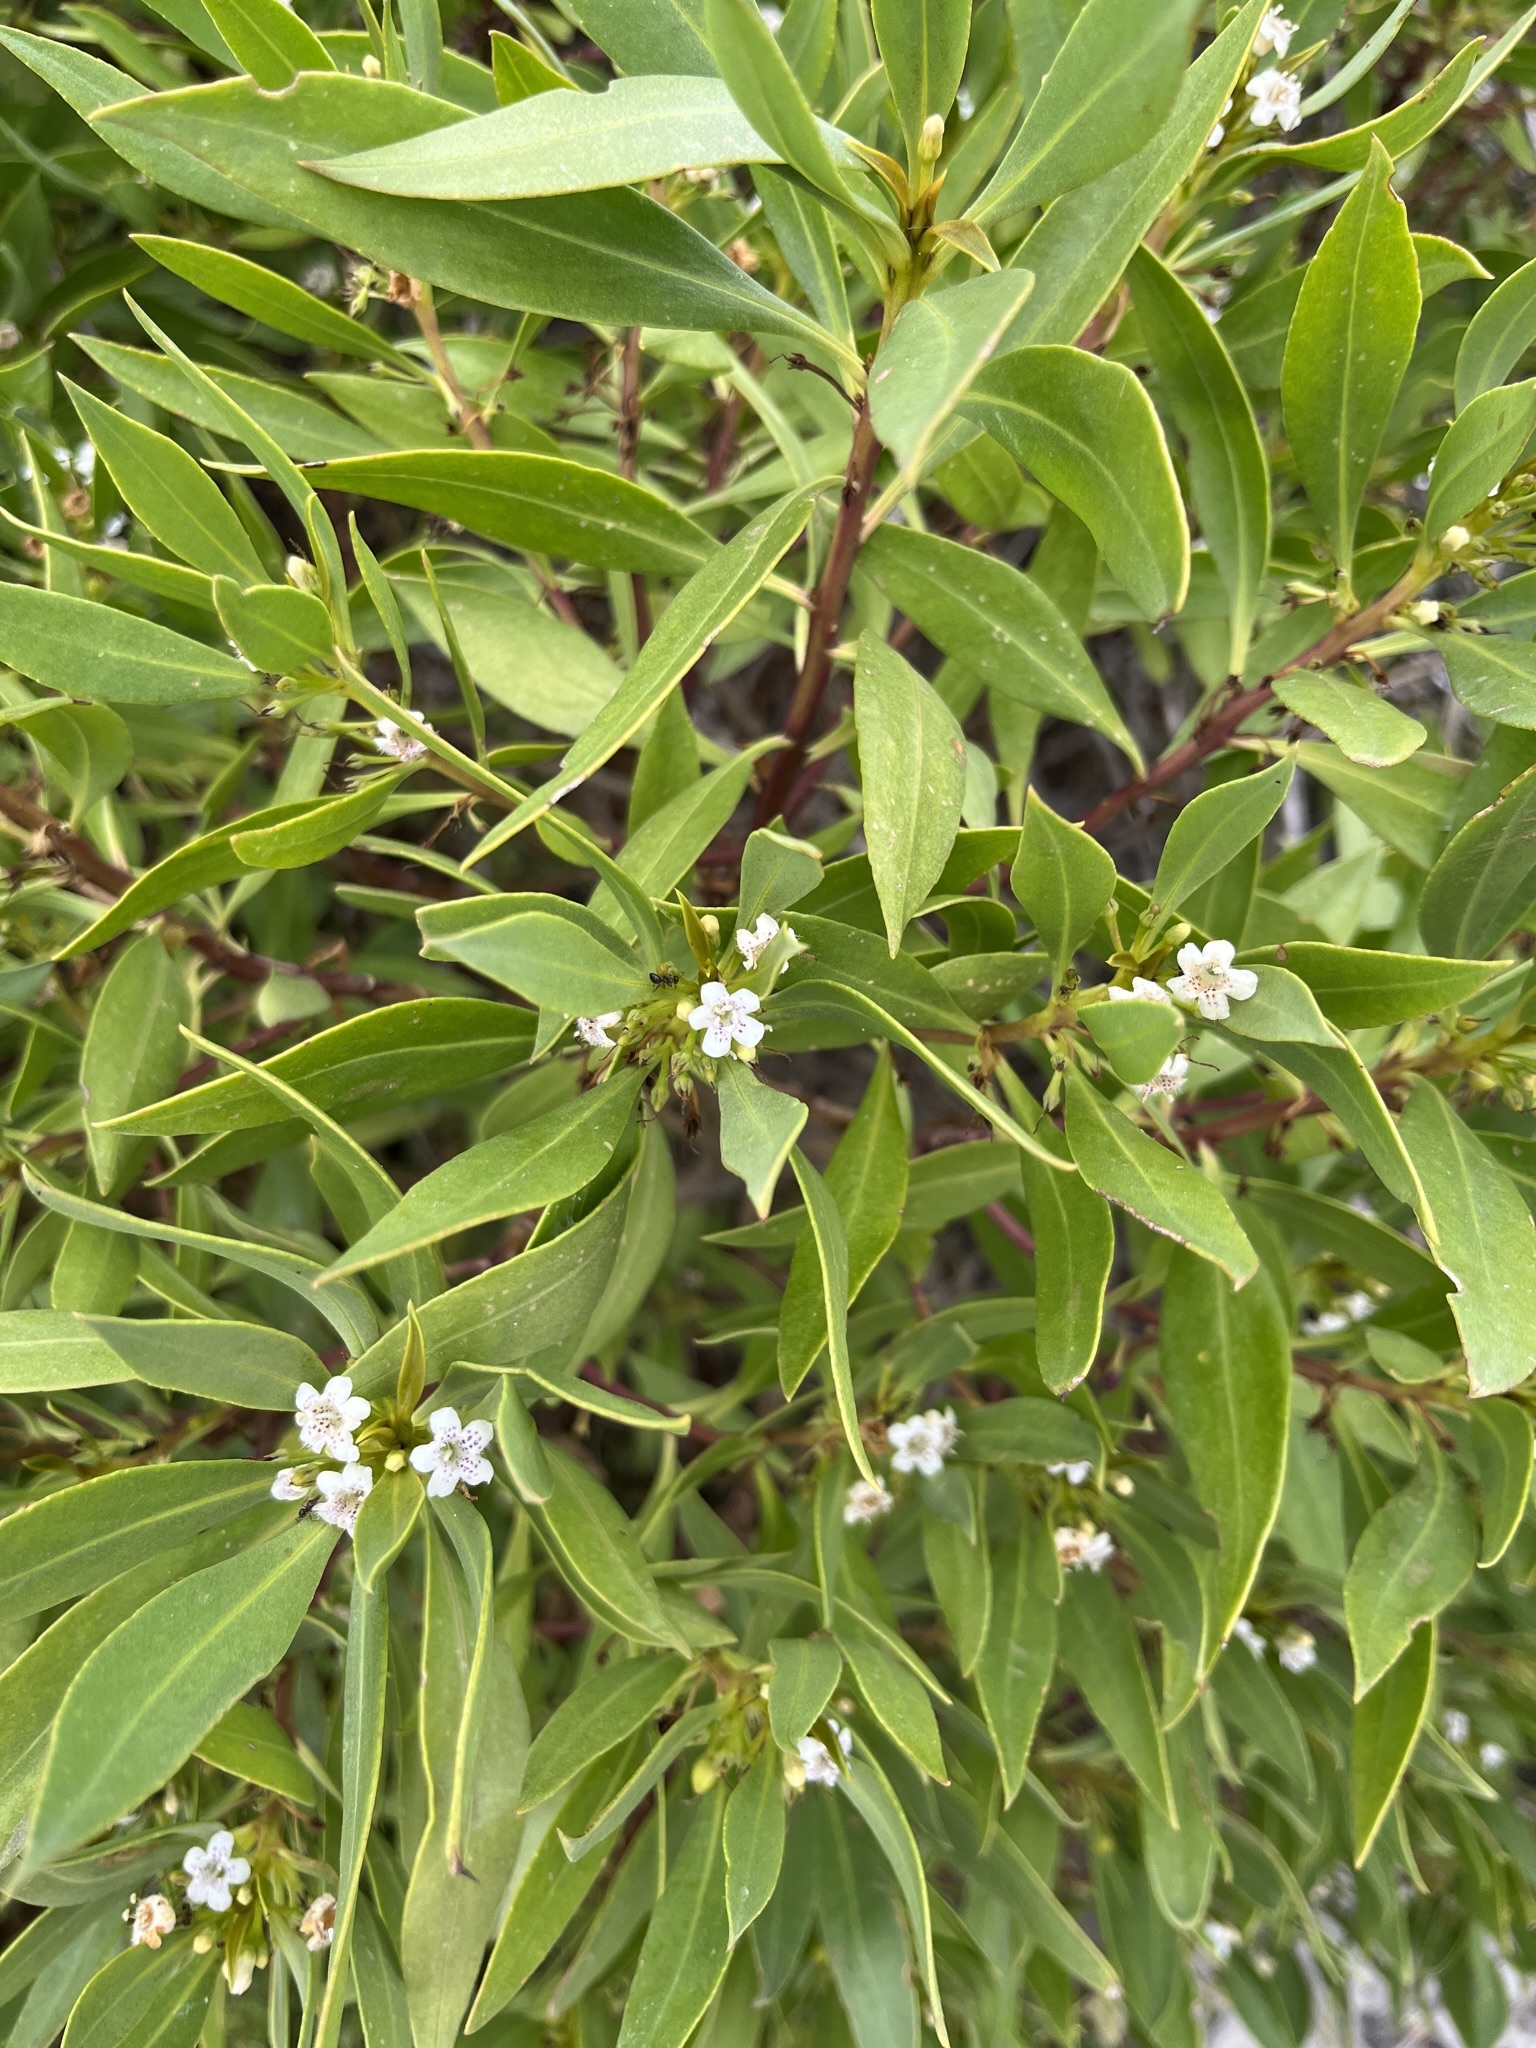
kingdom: Plantae
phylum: Tracheophyta
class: Magnoliopsida
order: Lamiales
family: Scrophulariaceae
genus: Myoporum
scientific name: Myoporum insulare
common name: Common boobialla
